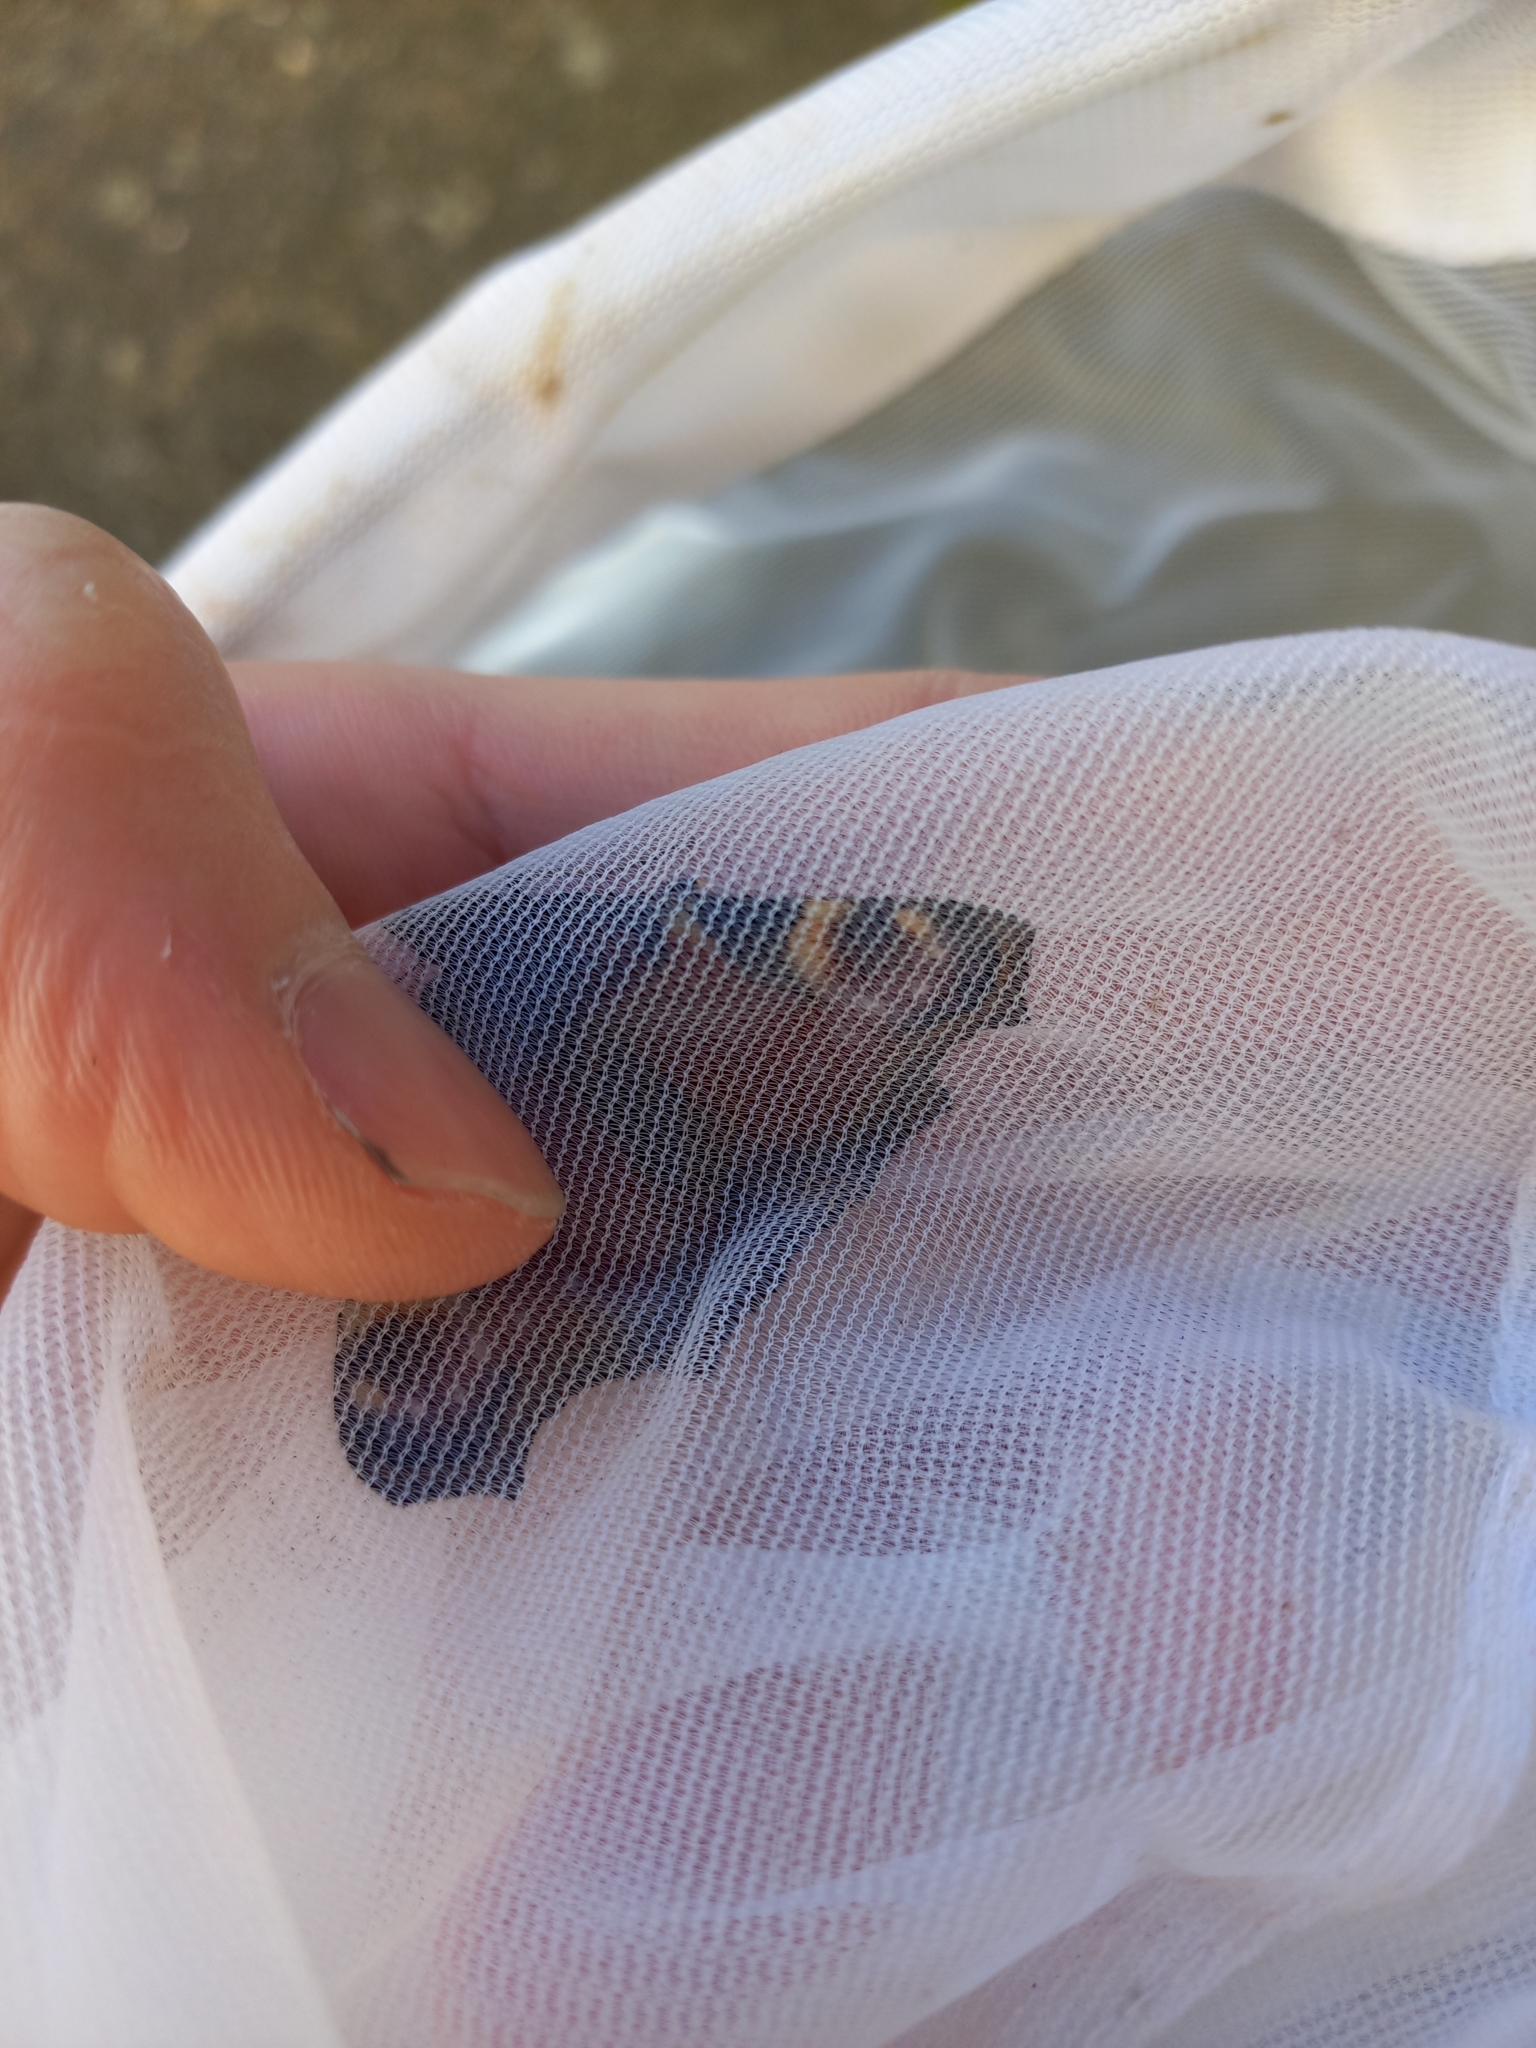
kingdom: Animalia
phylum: Arthropoda
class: Insecta
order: Lepidoptera
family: Nymphalidae
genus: Aglais
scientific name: Aglais io
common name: Peacock
